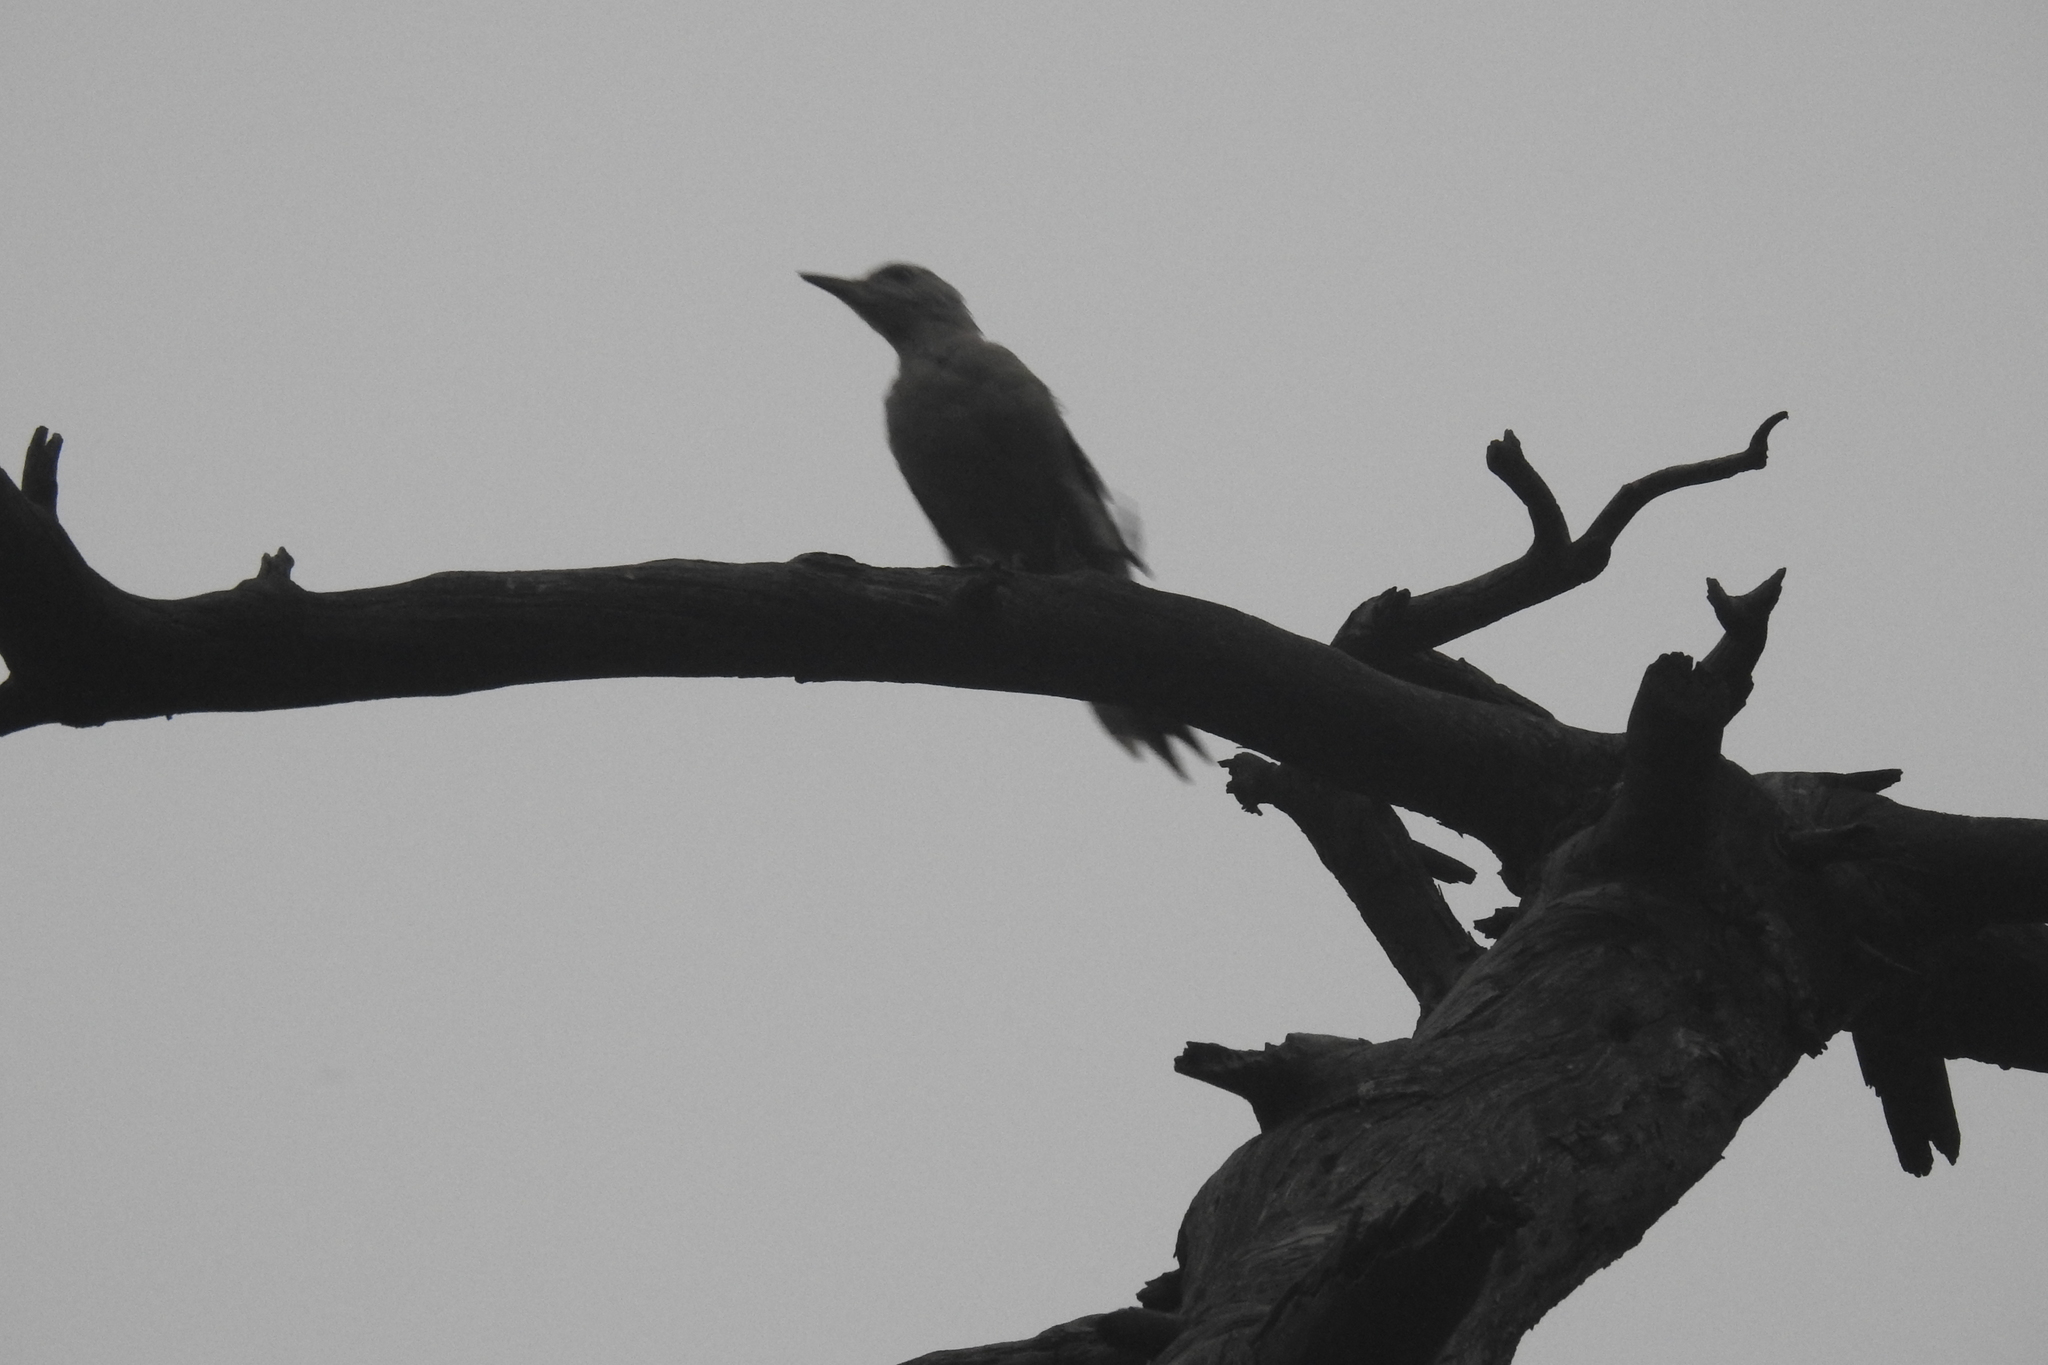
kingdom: Animalia
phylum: Chordata
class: Aves
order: Piciformes
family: Picidae
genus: Picus
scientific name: Picus canus
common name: Grey-headed woodpecker
